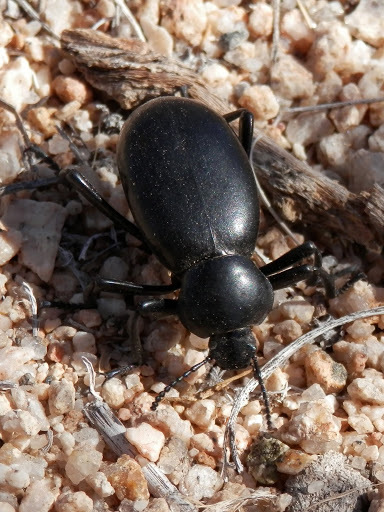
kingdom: Animalia
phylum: Arthropoda
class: Insecta
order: Coleoptera
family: Tenebrionidae
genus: Eleodes
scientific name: Eleodes grandicollis
